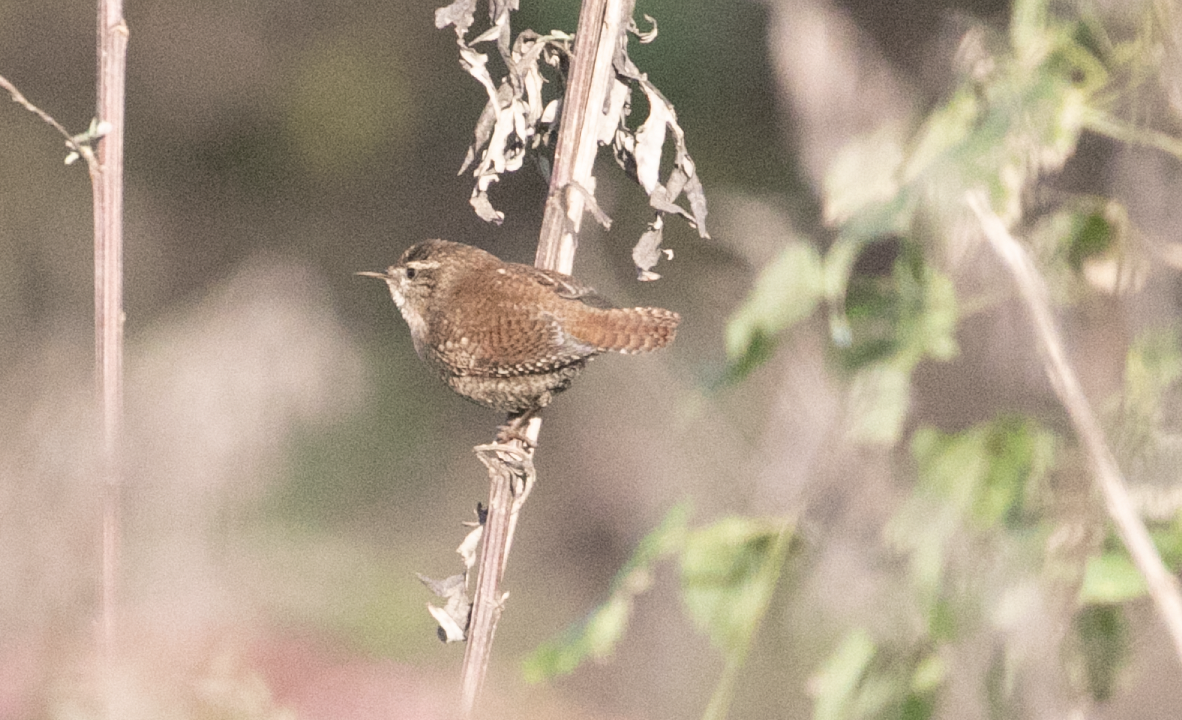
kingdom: Animalia
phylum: Chordata
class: Aves
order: Passeriformes
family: Troglodytidae
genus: Troglodytes
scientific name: Troglodytes troglodytes
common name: Eurasian wren
